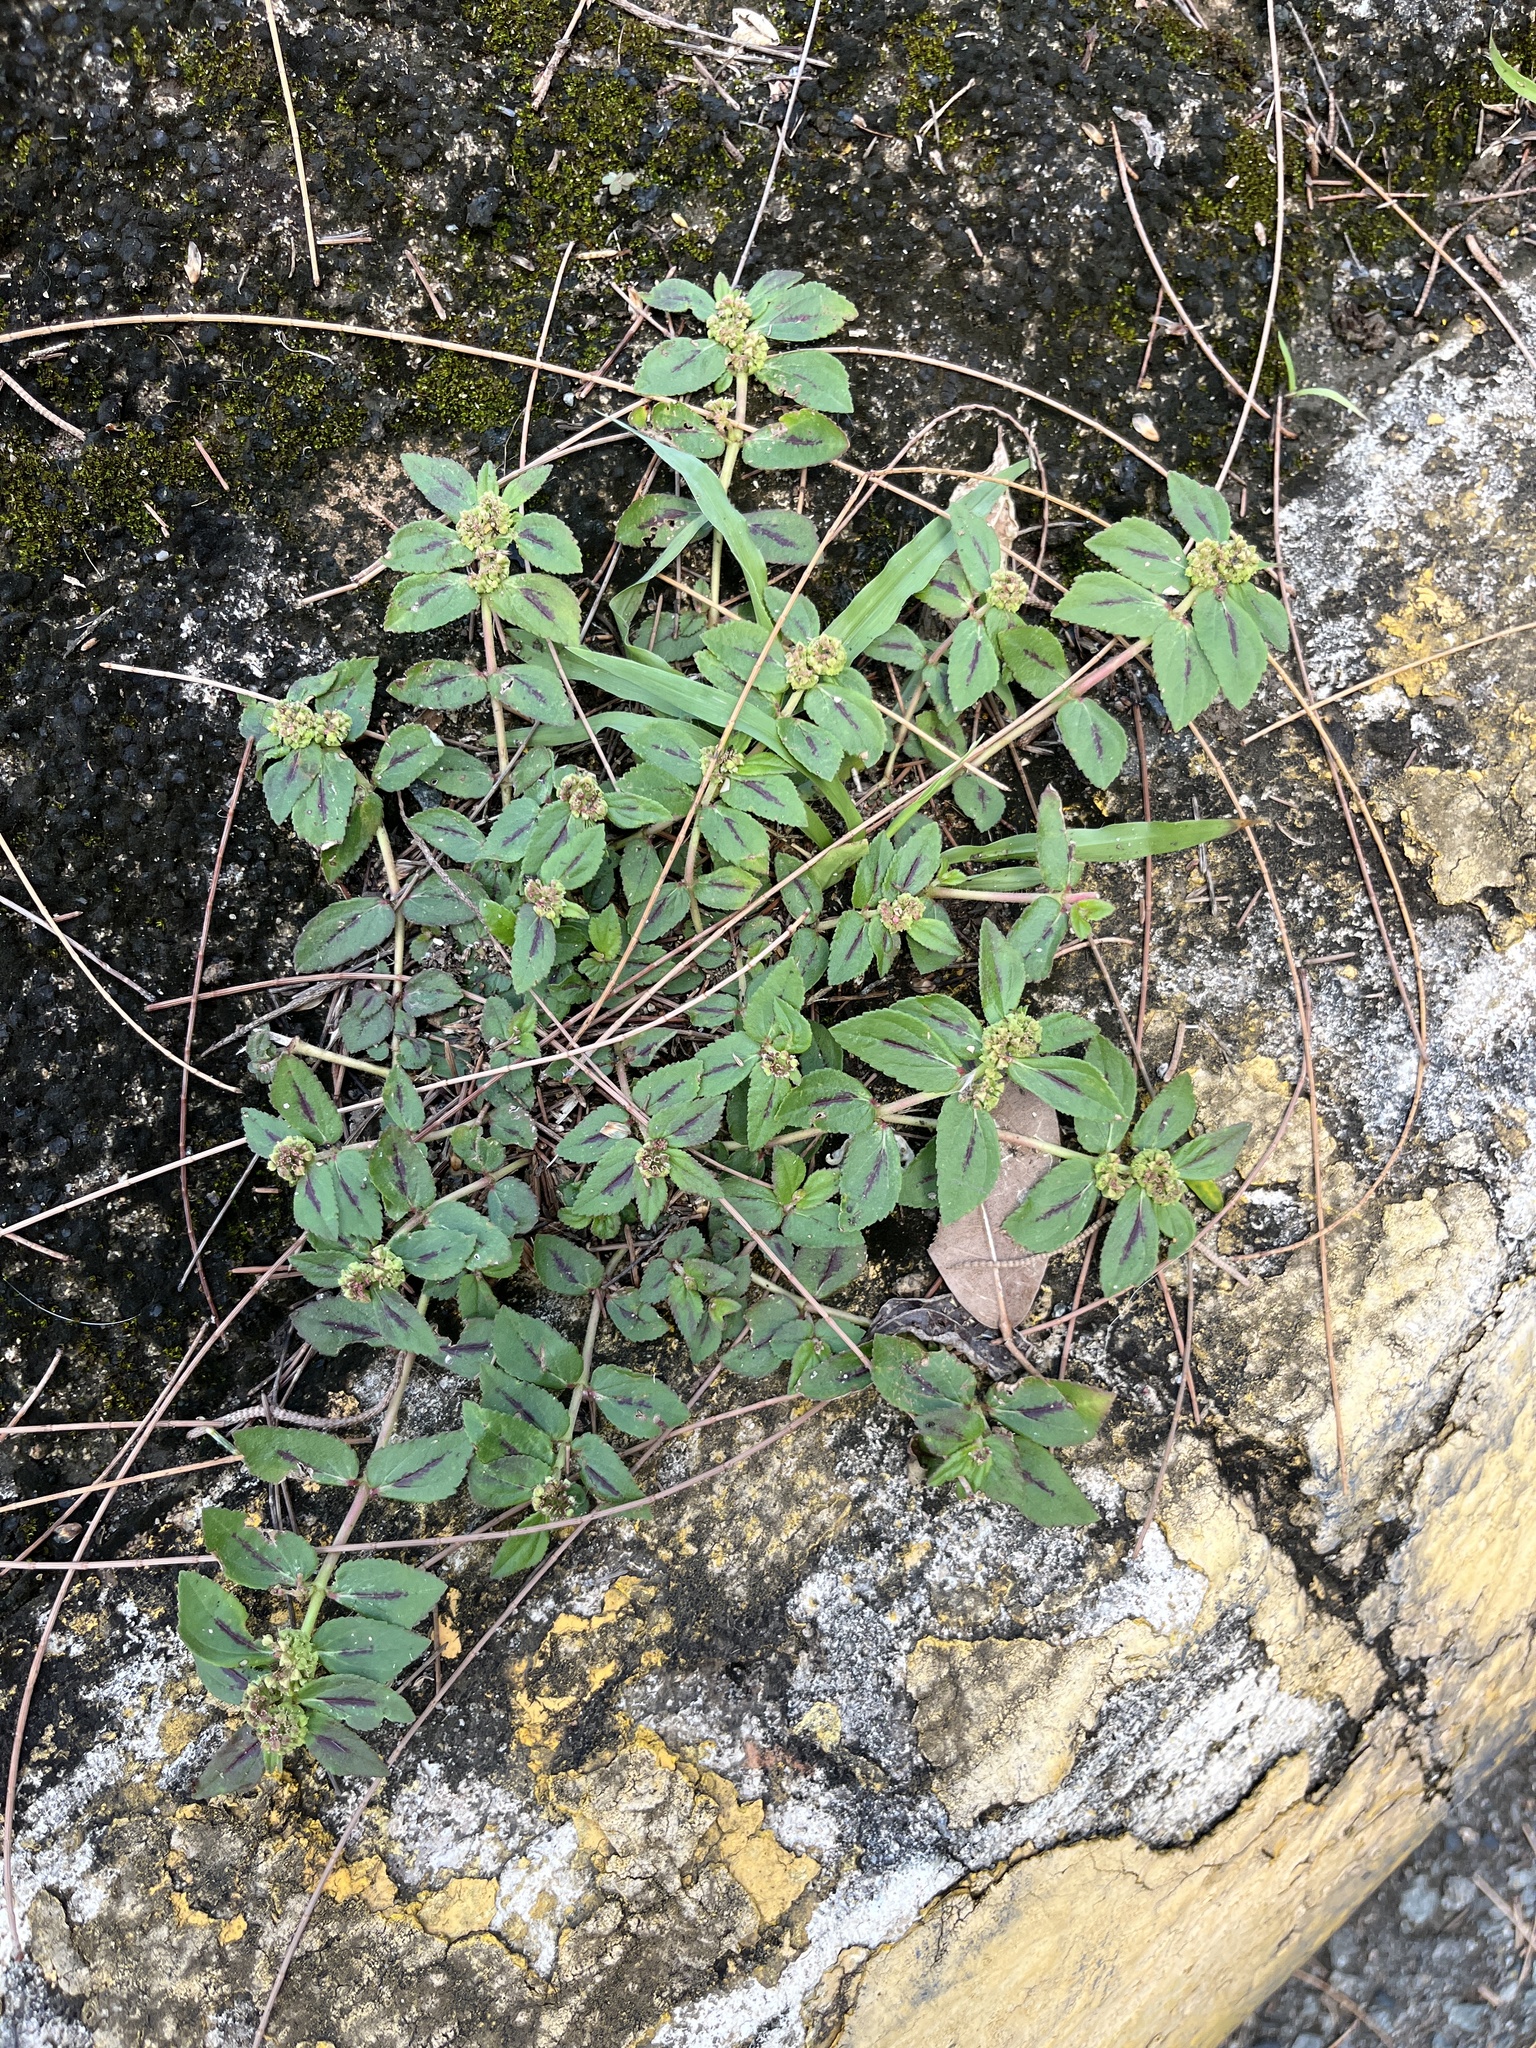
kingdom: Plantae
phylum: Tracheophyta
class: Magnoliopsida
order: Malpighiales
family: Euphorbiaceae
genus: Euphorbia
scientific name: Euphorbia hirta
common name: Pillpod sandmat
